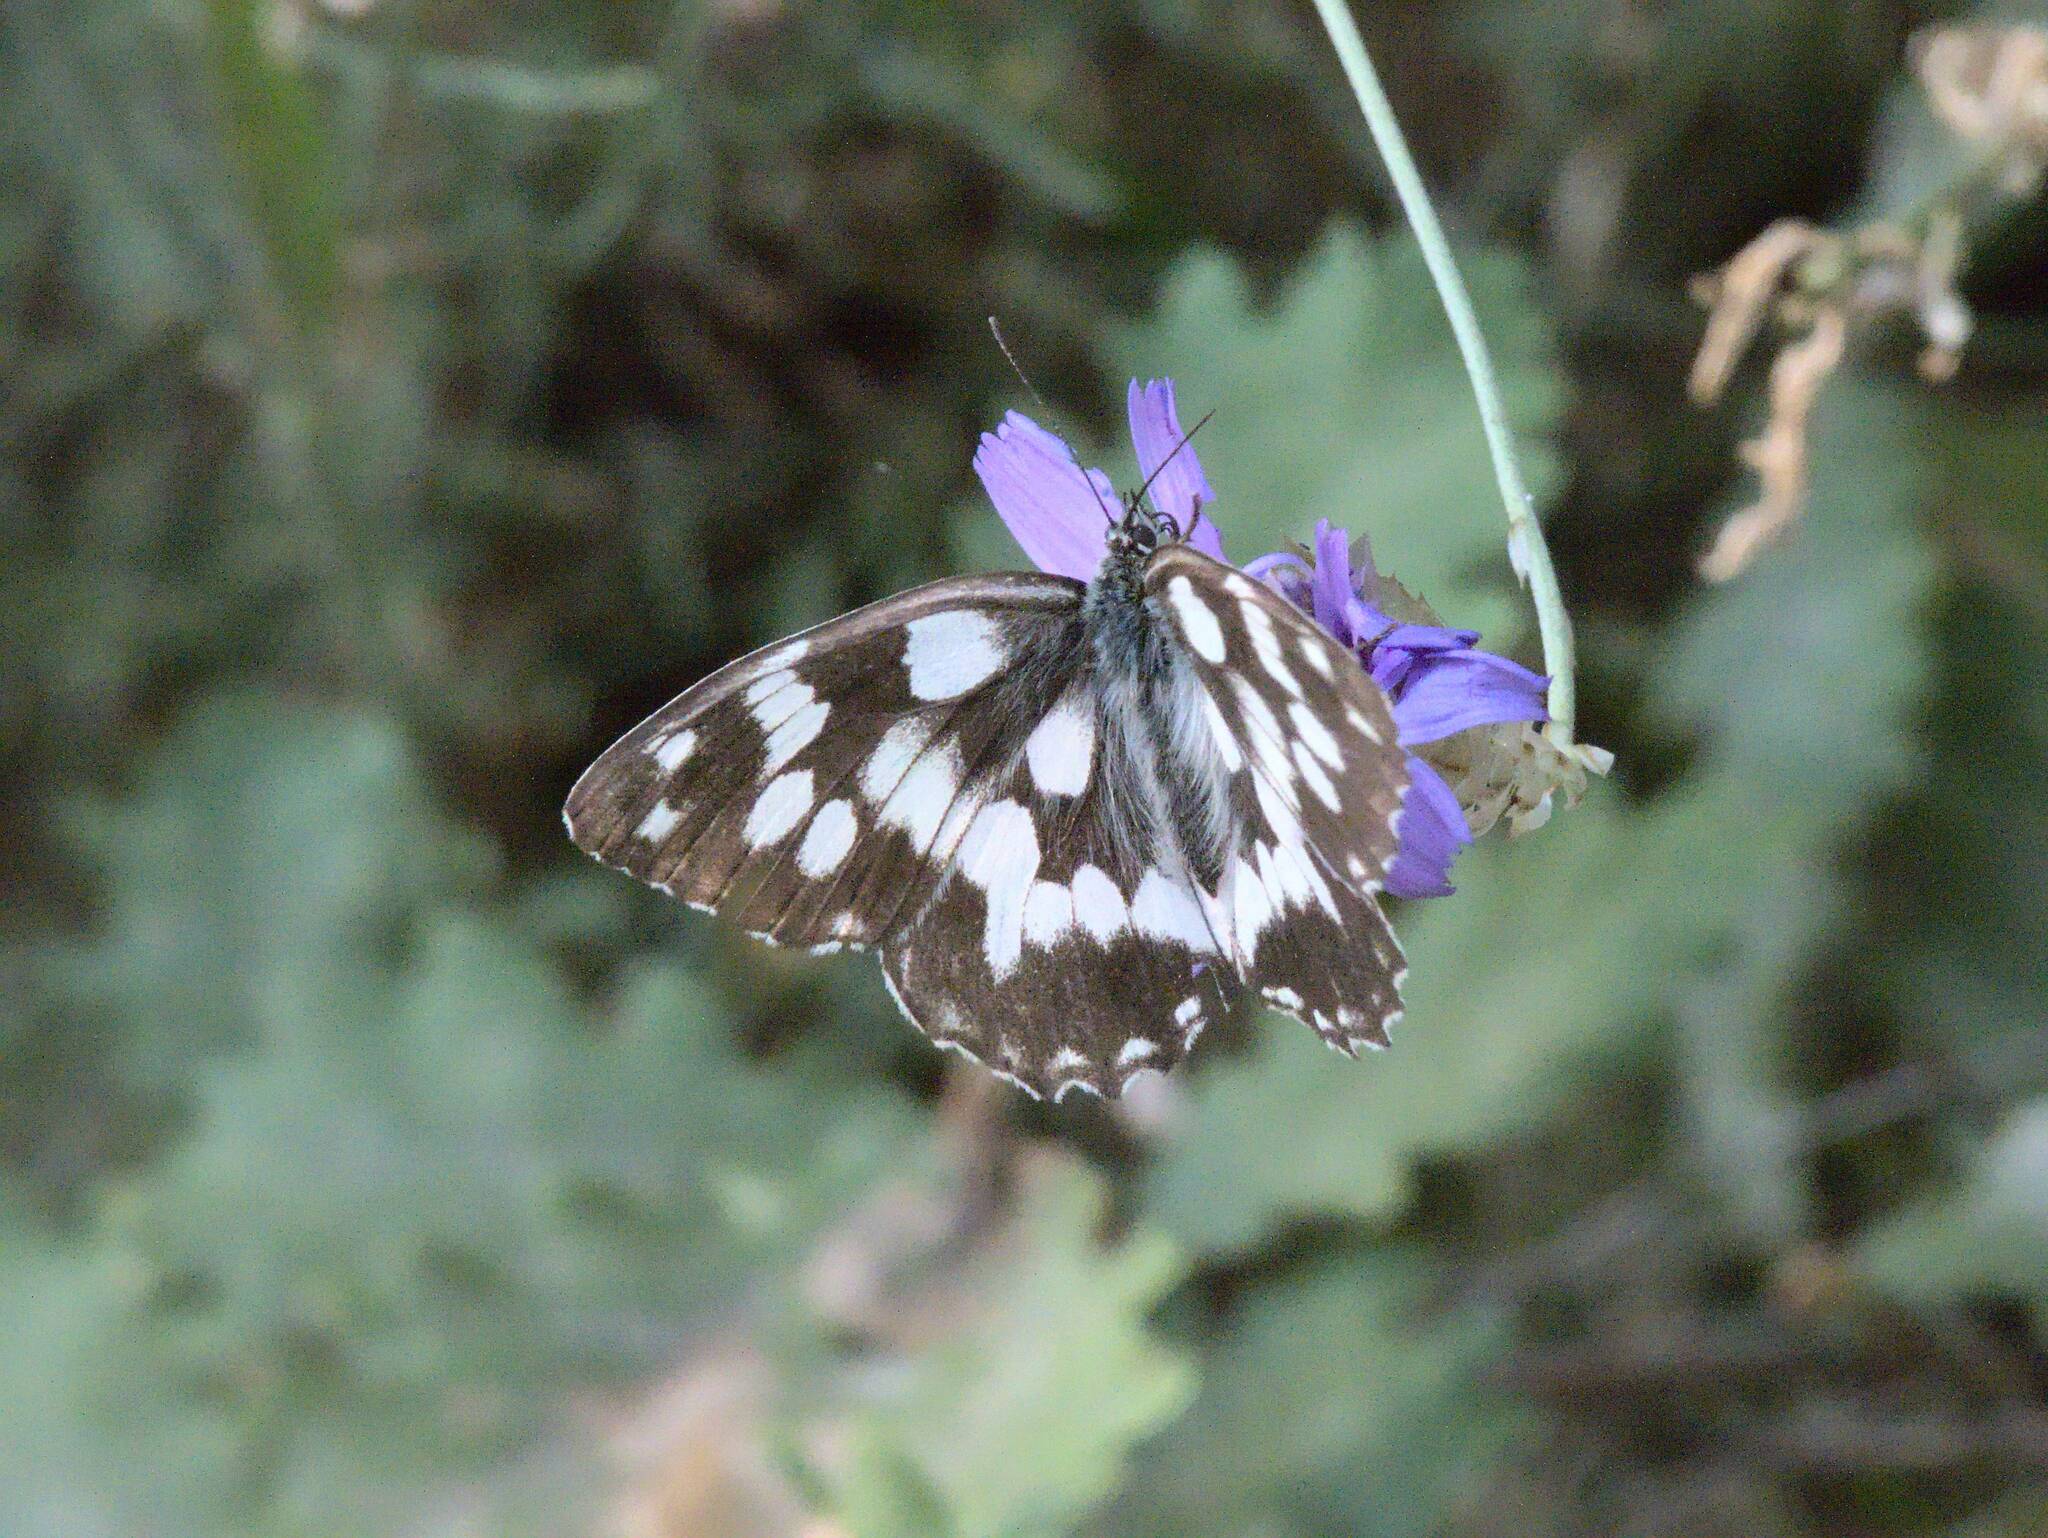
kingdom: Animalia
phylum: Arthropoda
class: Insecta
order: Lepidoptera
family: Nymphalidae
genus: Melanargia
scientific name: Melanargia galathea
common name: Marbled white
